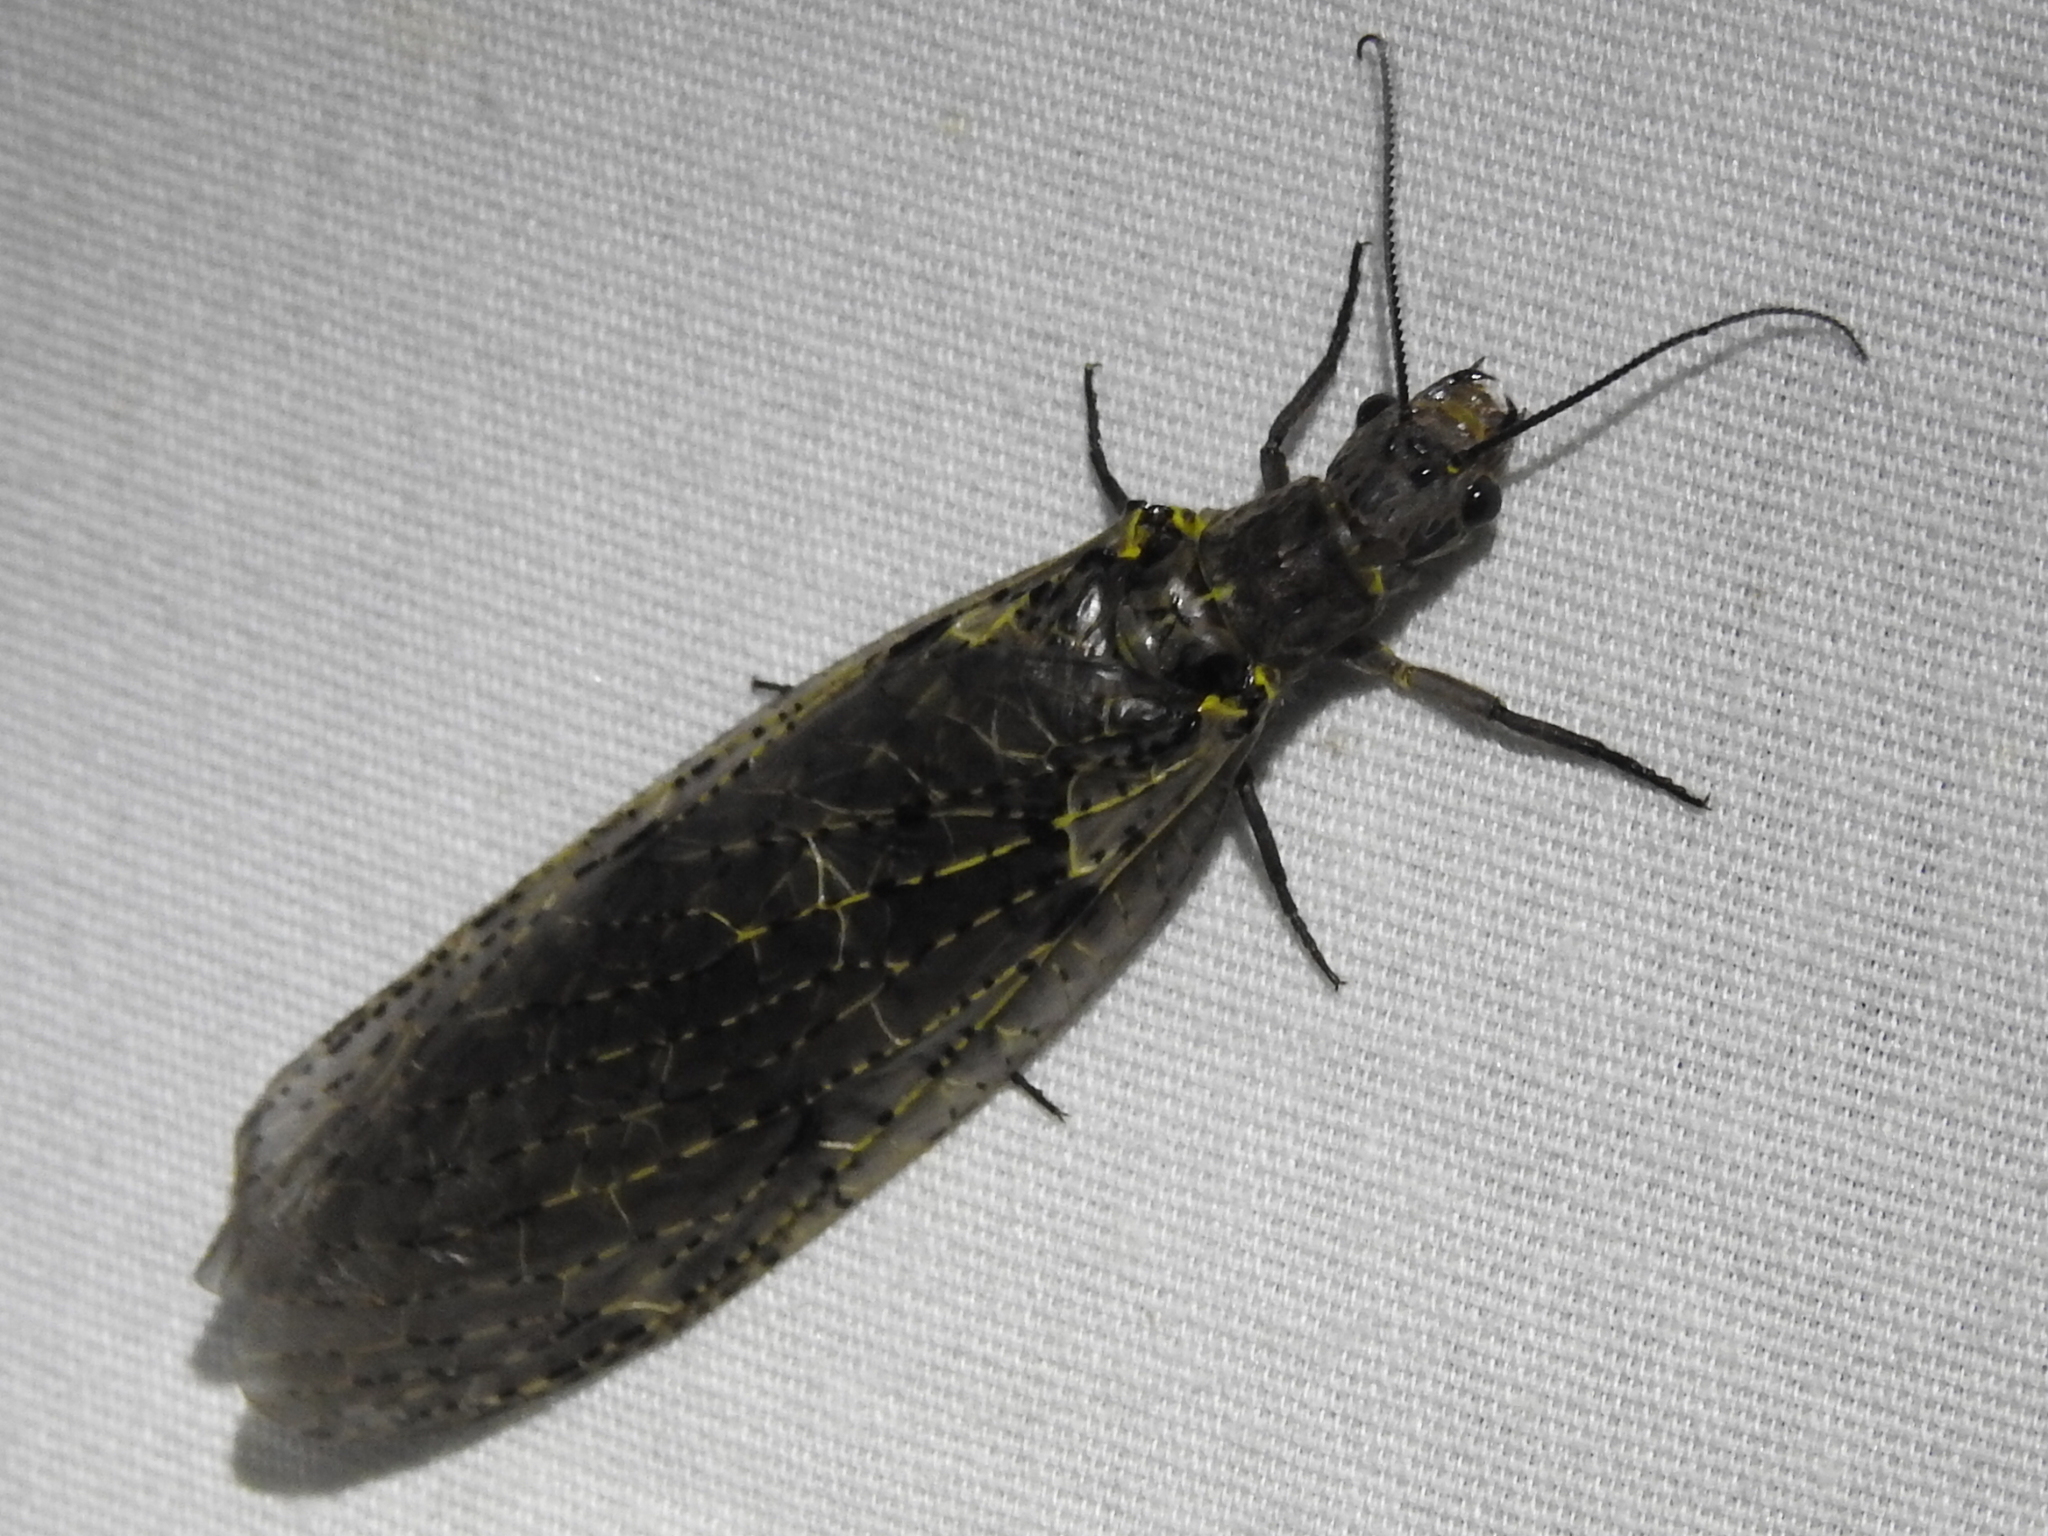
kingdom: Animalia
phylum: Arthropoda
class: Insecta
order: Megaloptera
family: Corydalidae
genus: Chauliodes
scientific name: Chauliodes rastricornis
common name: Spring fishfly
